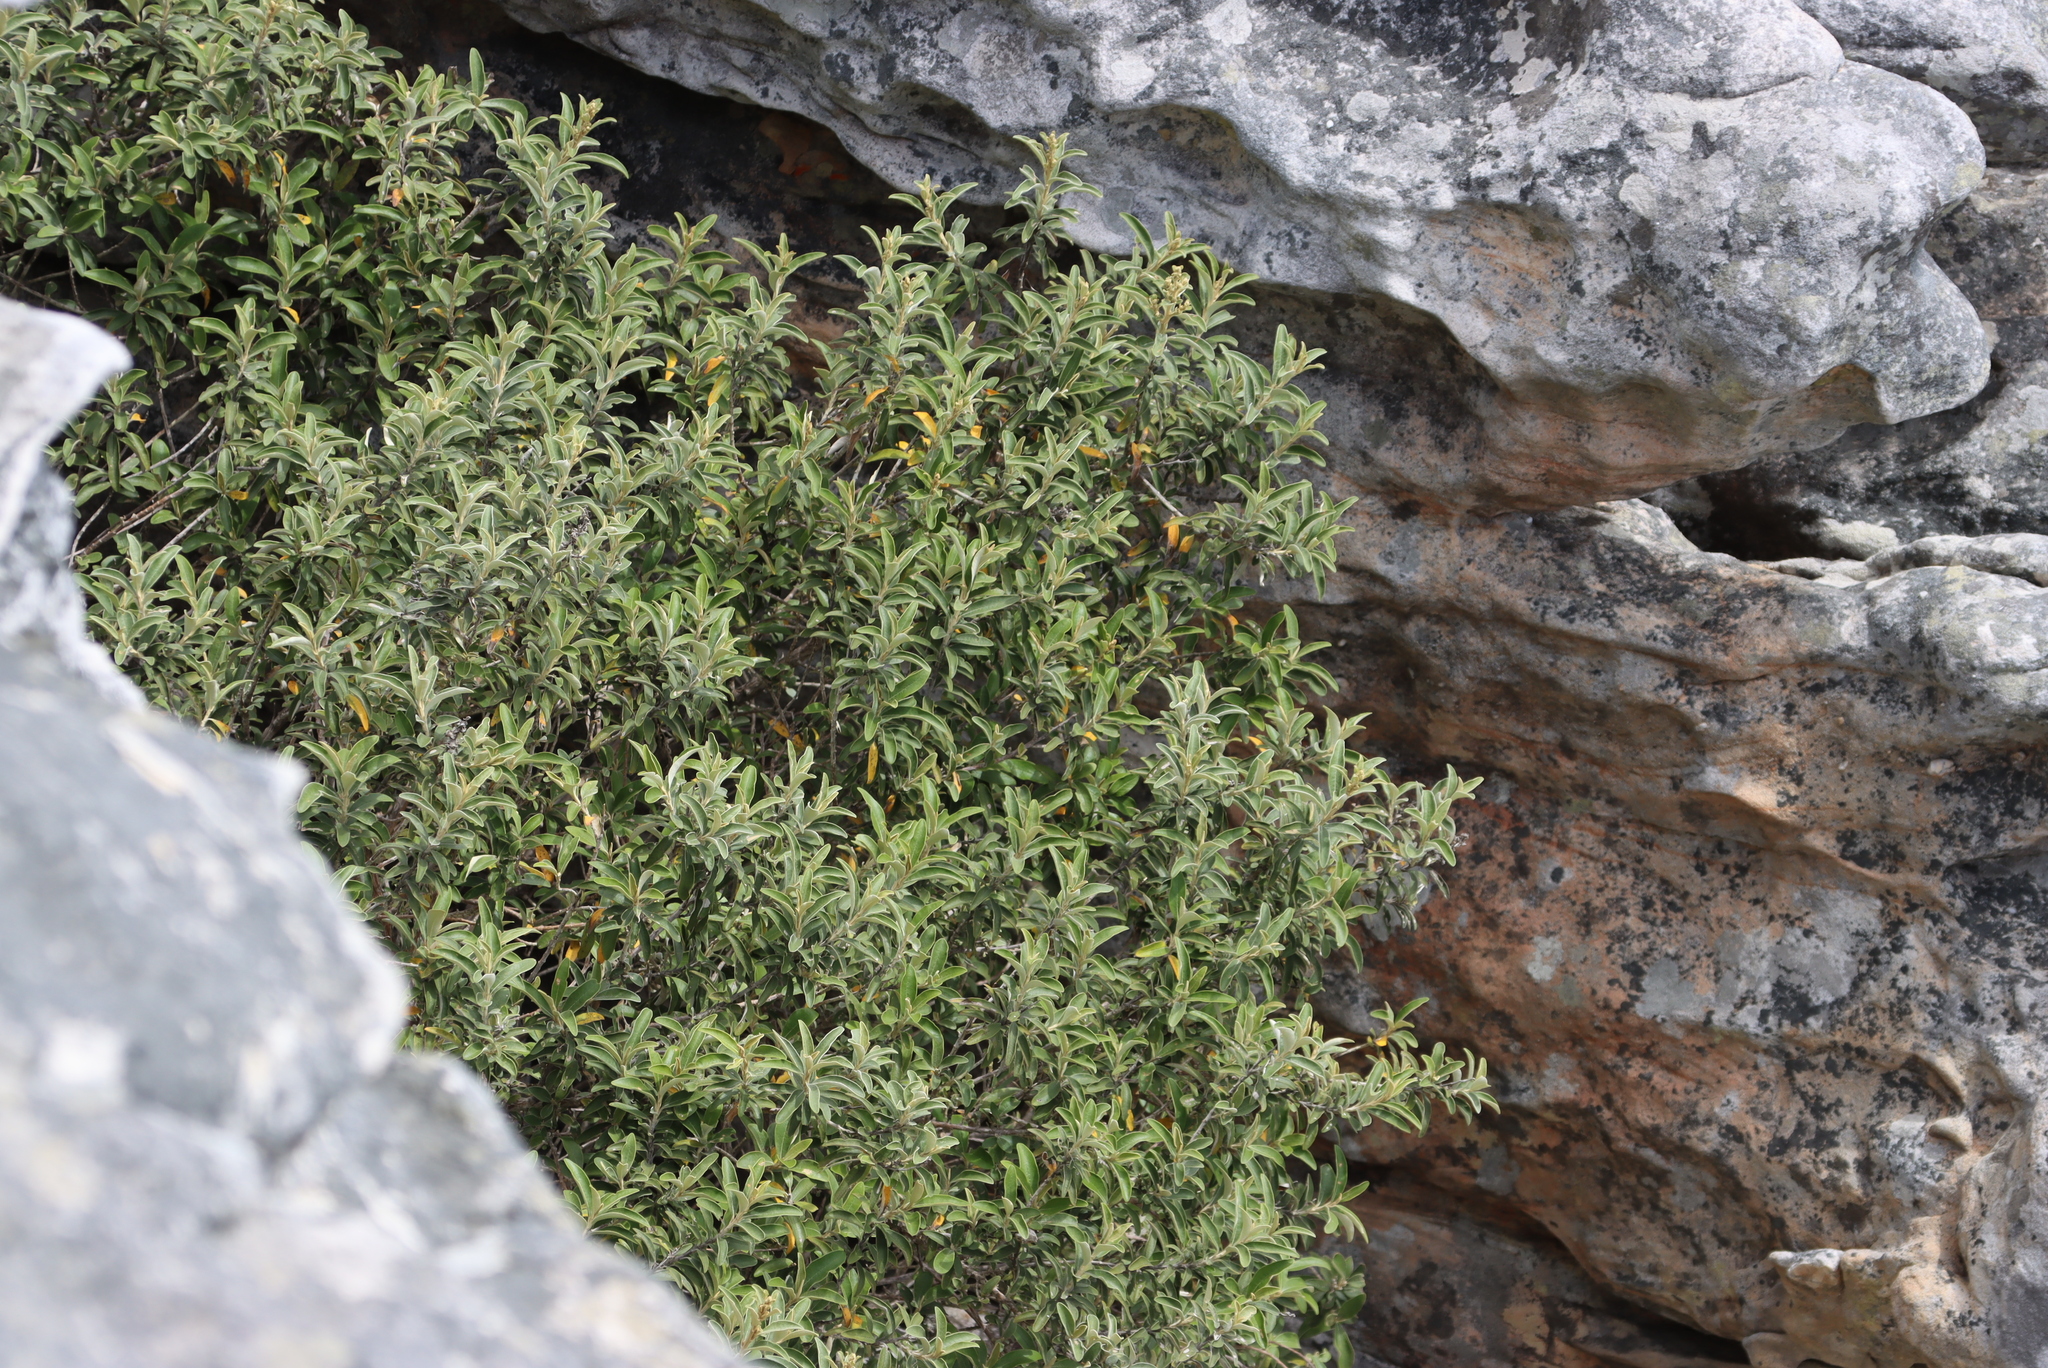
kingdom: Plantae
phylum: Tracheophyta
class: Magnoliopsida
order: Asterales
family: Asteraceae
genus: Tarchonanthus
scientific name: Tarchonanthus littoralis
